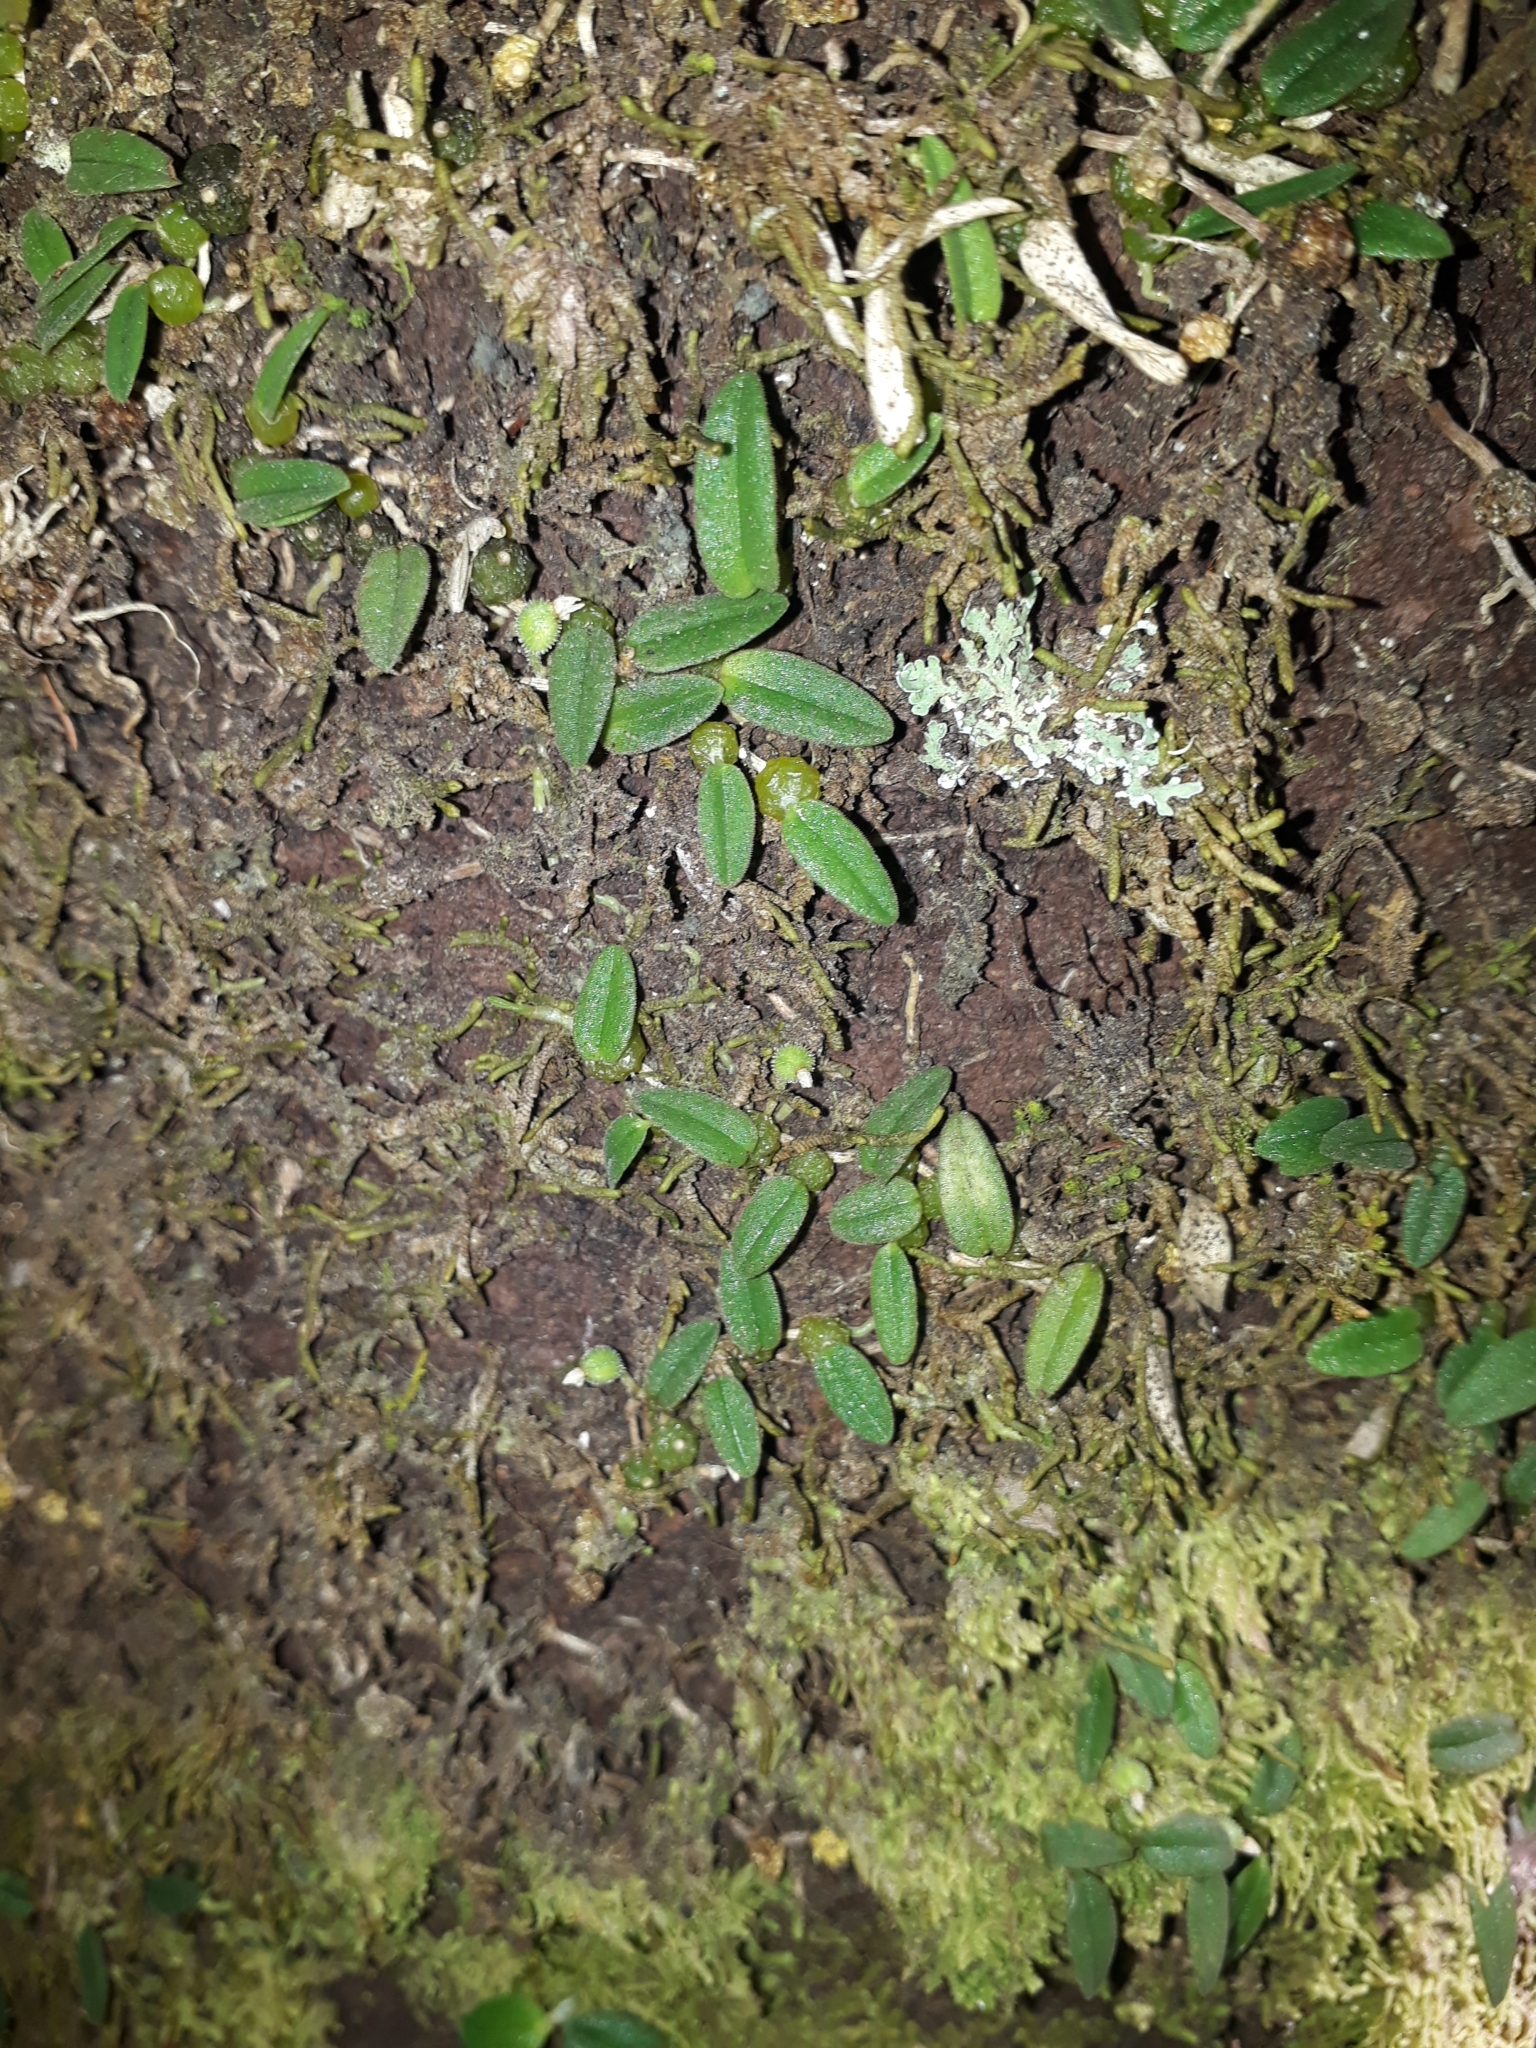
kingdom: Plantae
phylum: Tracheophyta
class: Liliopsida
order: Asparagales
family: Orchidaceae
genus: Bulbophyllum
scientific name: Bulbophyllum pygmaeum
